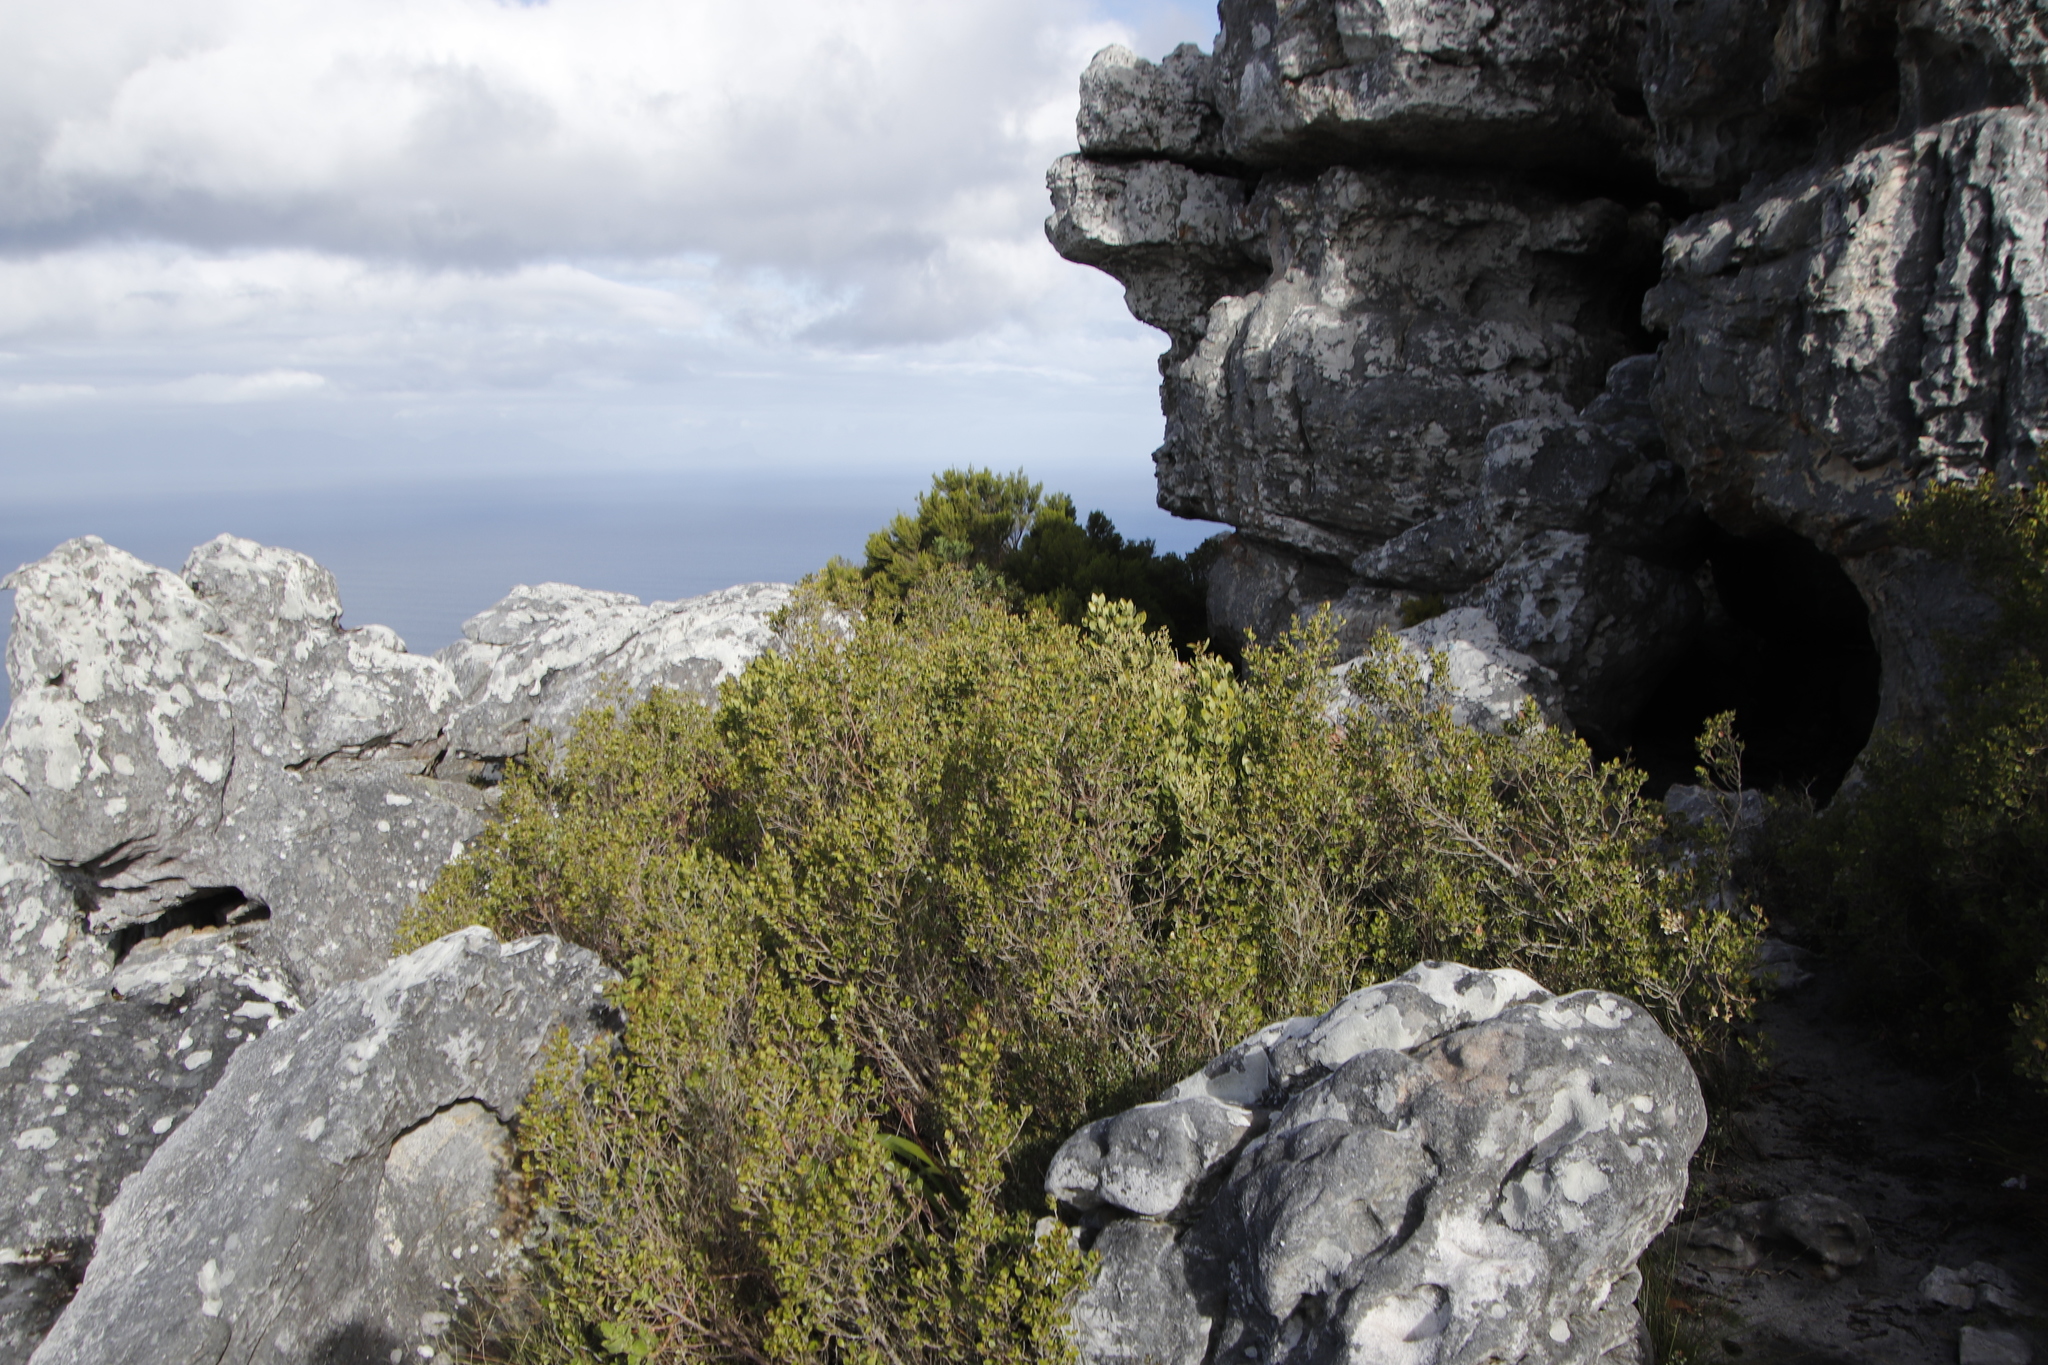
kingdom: Plantae
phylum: Tracheophyta
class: Magnoliopsida
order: Sapindales
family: Anacardiaceae
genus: Searsia
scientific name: Searsia lucida
